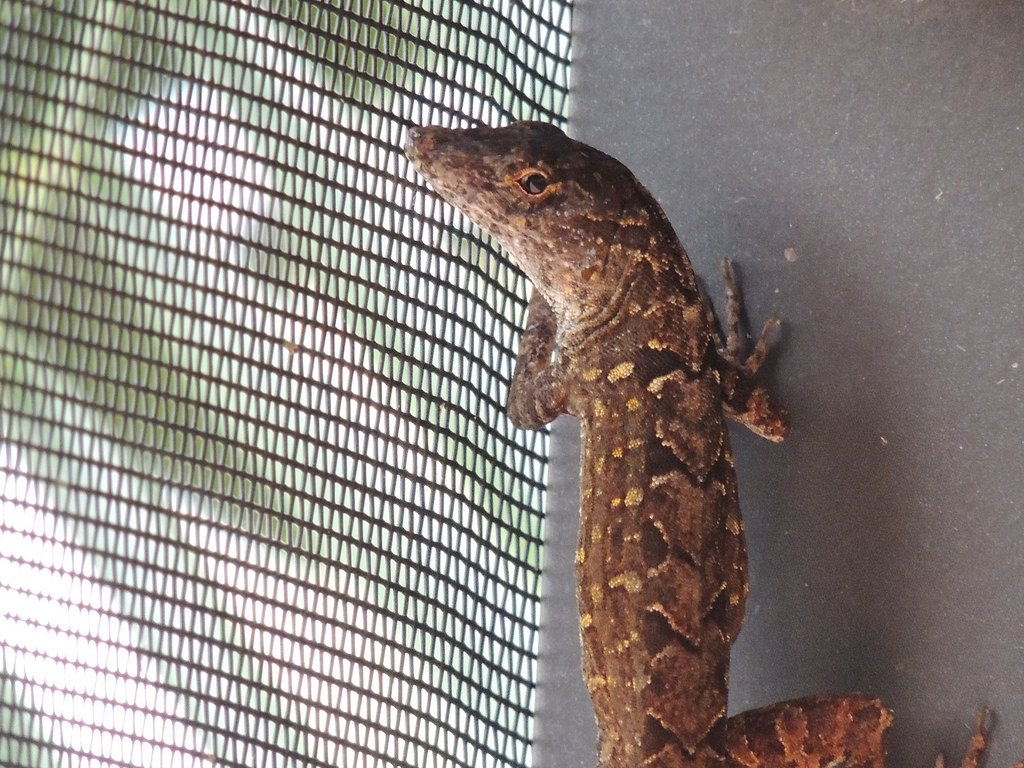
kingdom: Animalia
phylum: Chordata
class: Squamata
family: Dactyloidae
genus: Anolis
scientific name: Anolis sagrei
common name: Brown anole
